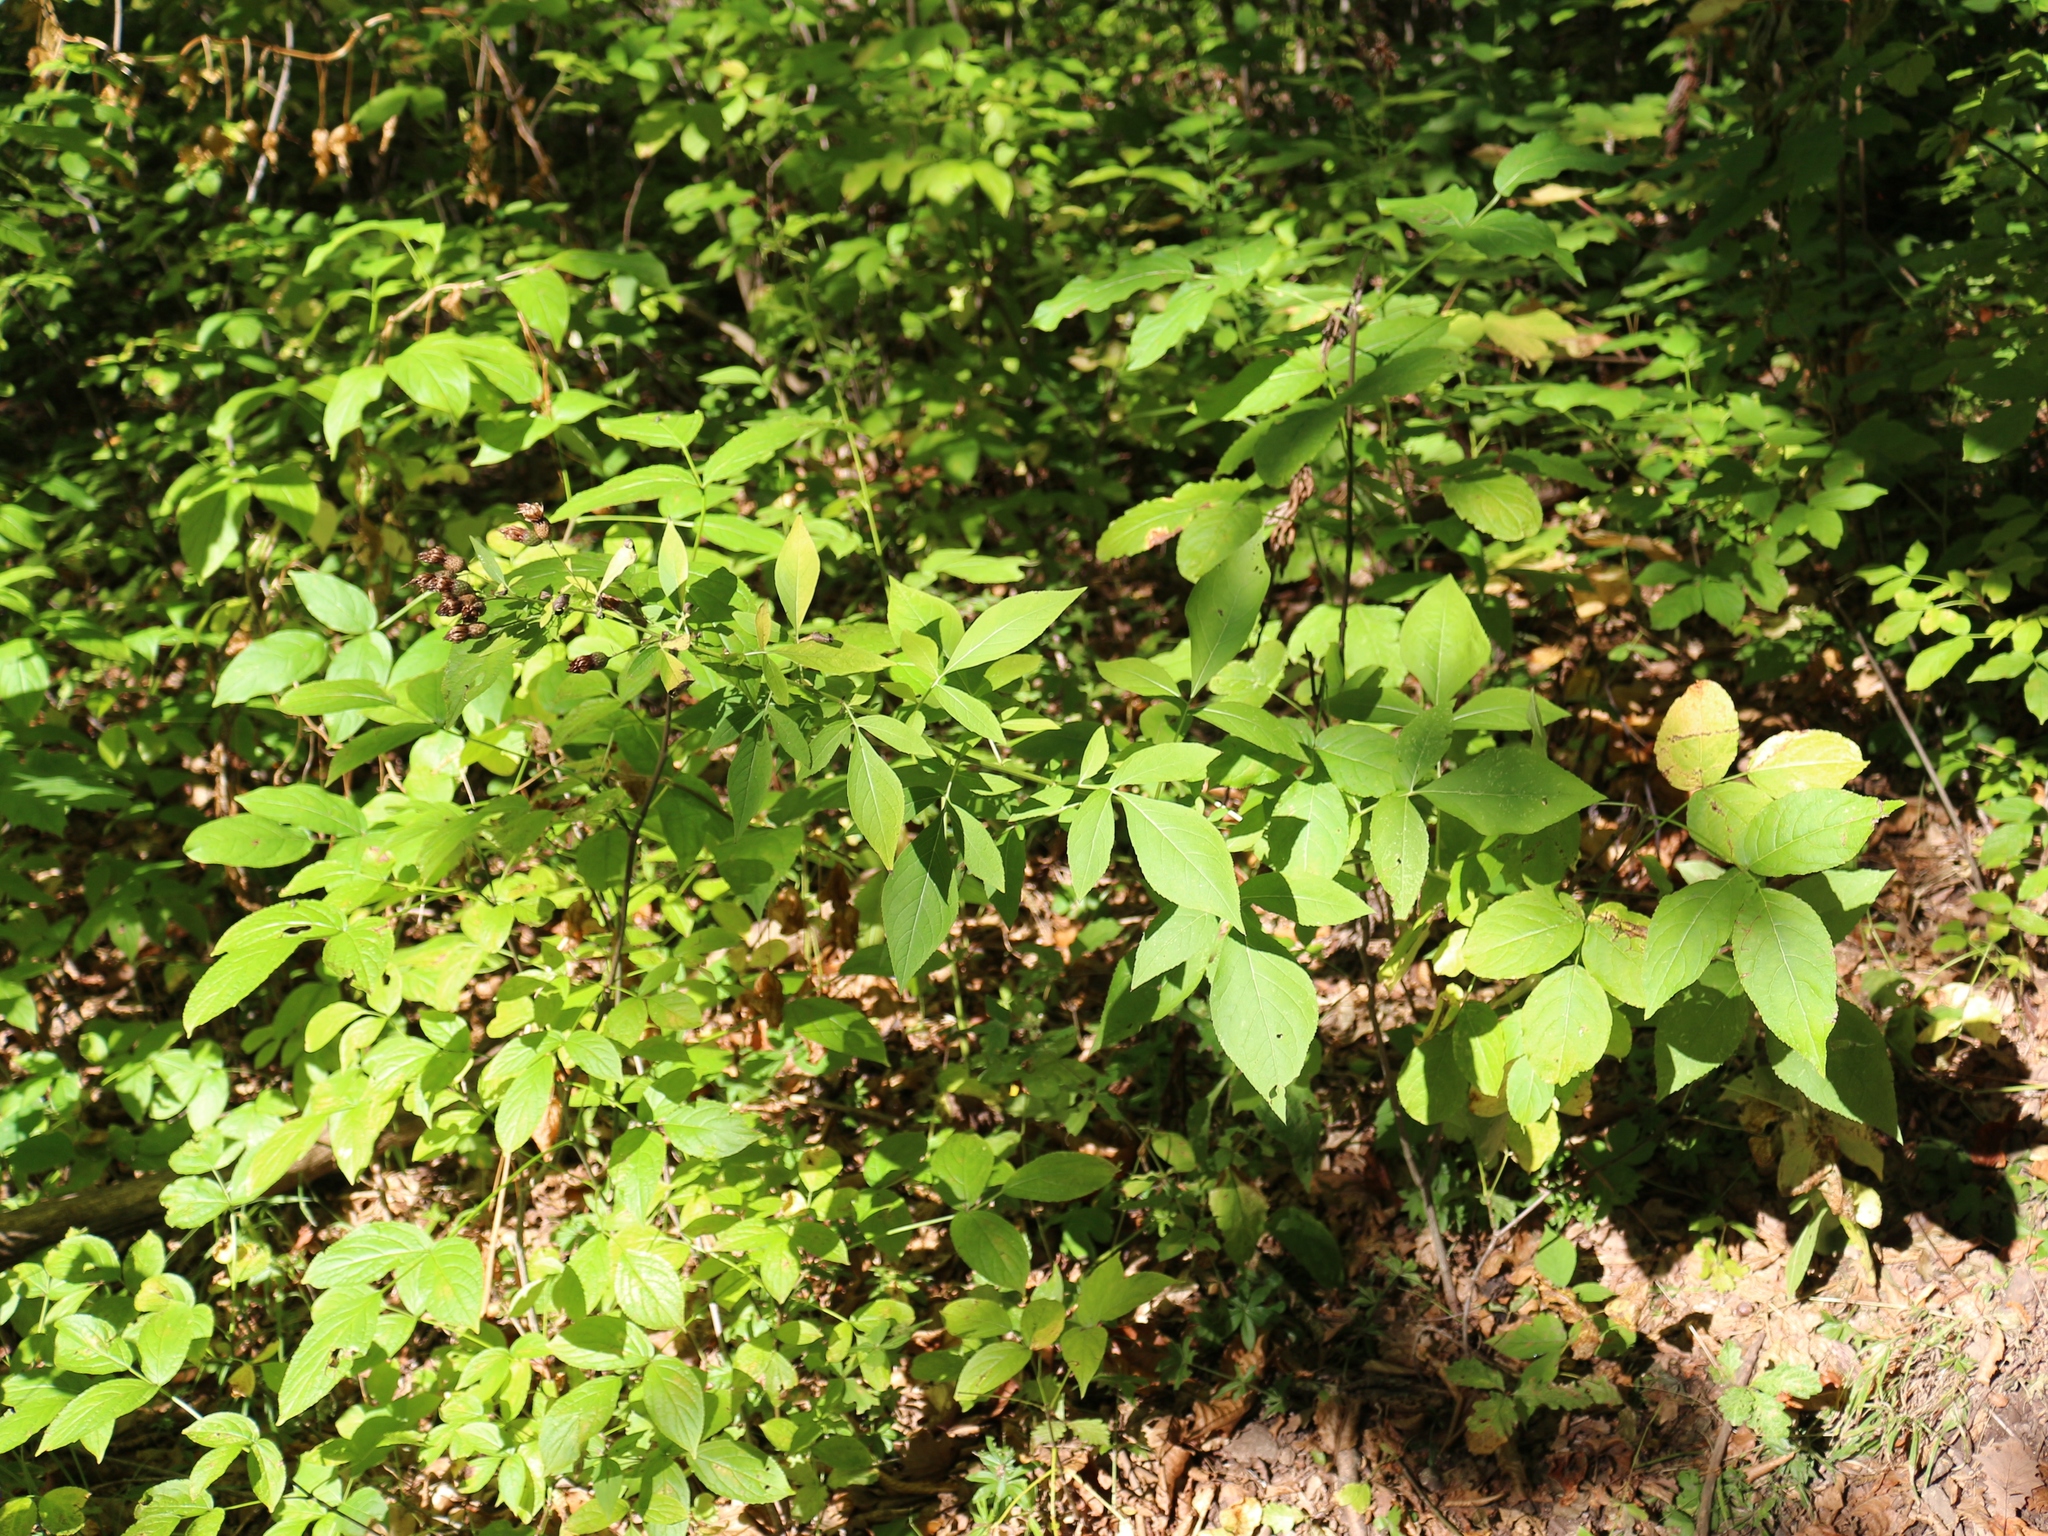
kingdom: Plantae
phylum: Tracheophyta
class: Magnoliopsida
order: Asterales
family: Asteraceae
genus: Klasea
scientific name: Klasea quinquefolia
